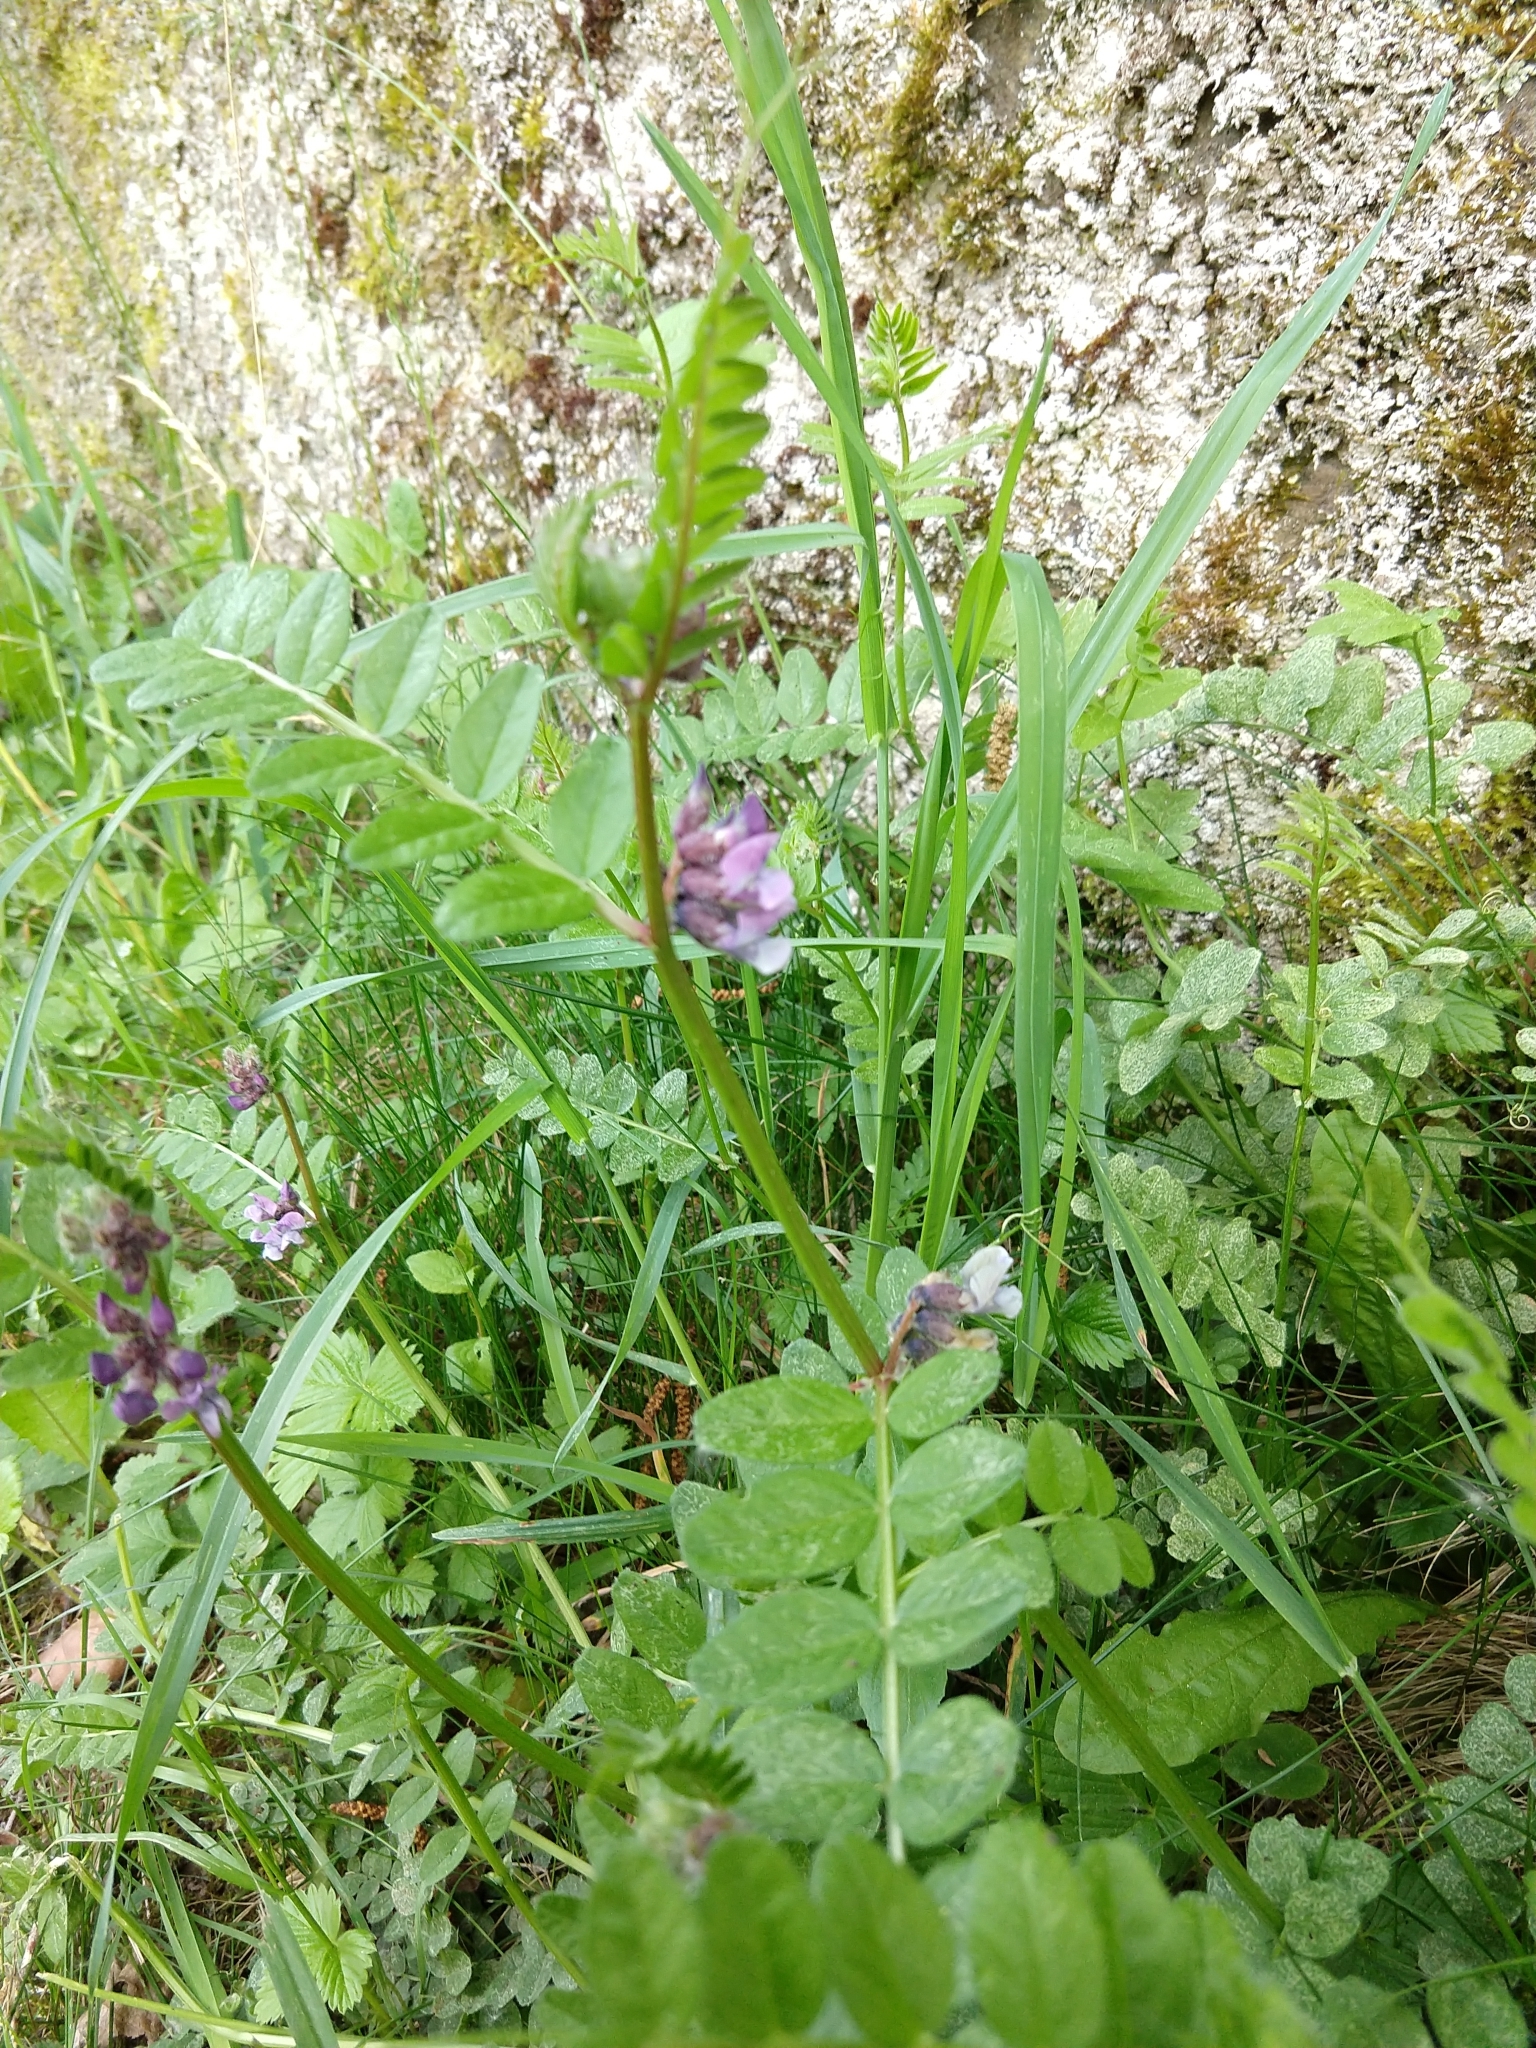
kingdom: Plantae
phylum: Tracheophyta
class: Magnoliopsida
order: Fabales
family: Fabaceae
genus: Vicia
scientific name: Vicia sepium
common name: Bush vetch
